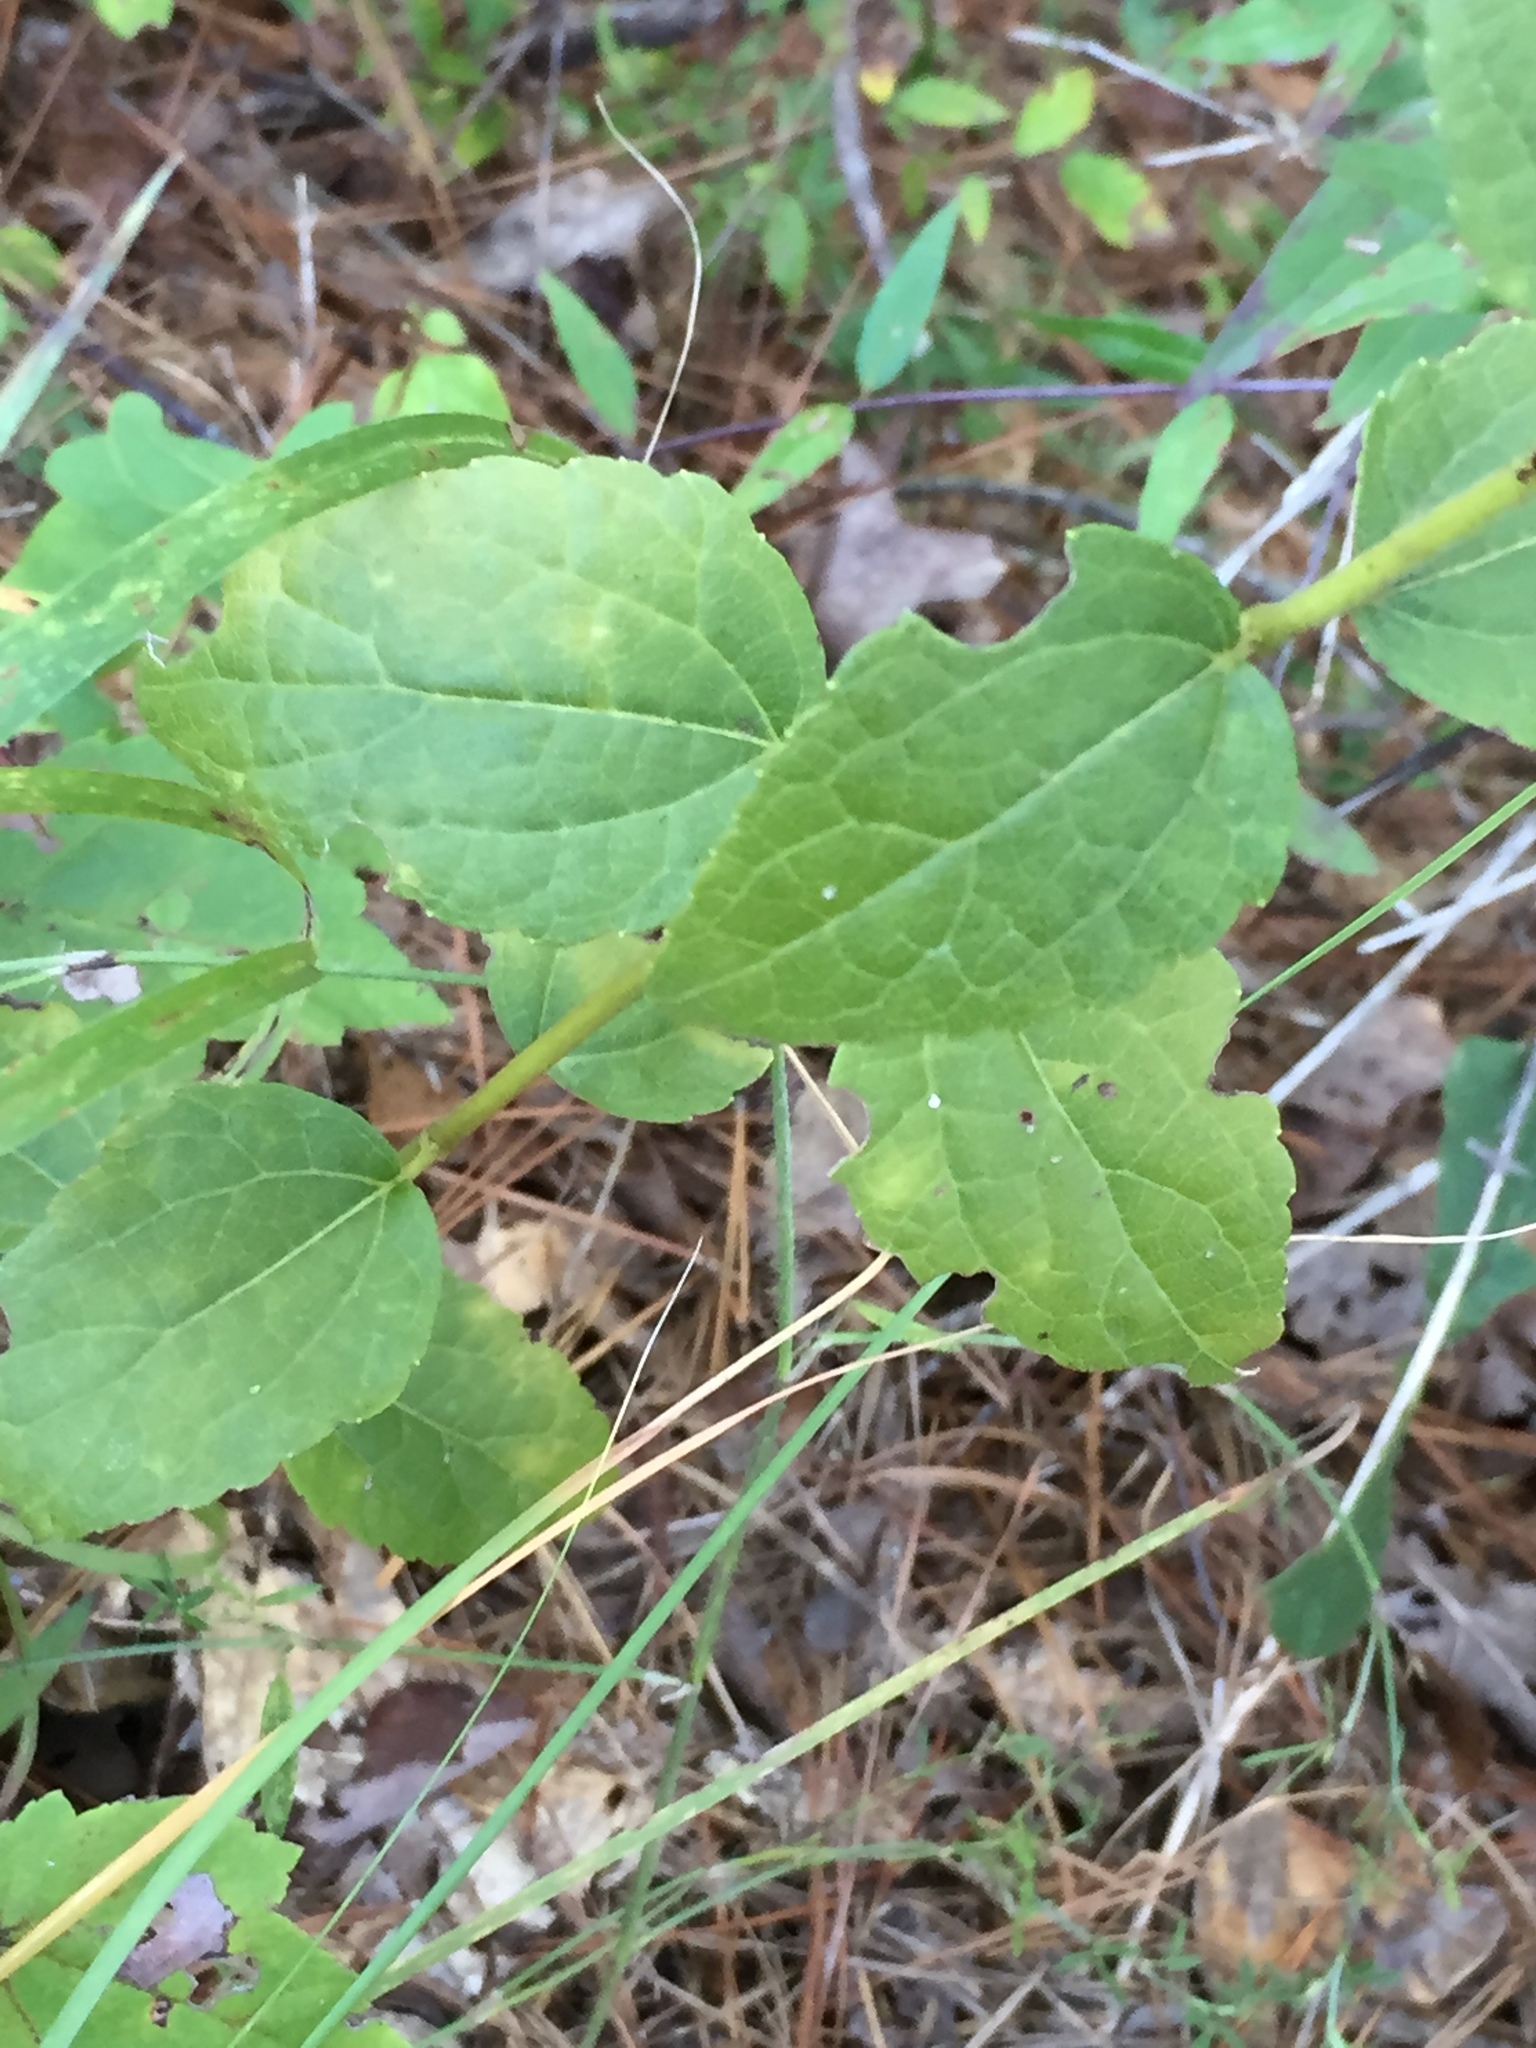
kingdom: Plantae
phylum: Tracheophyta
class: Magnoliopsida
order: Asterales
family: Asteraceae
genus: Ageratina
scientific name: Ageratina aromatica
